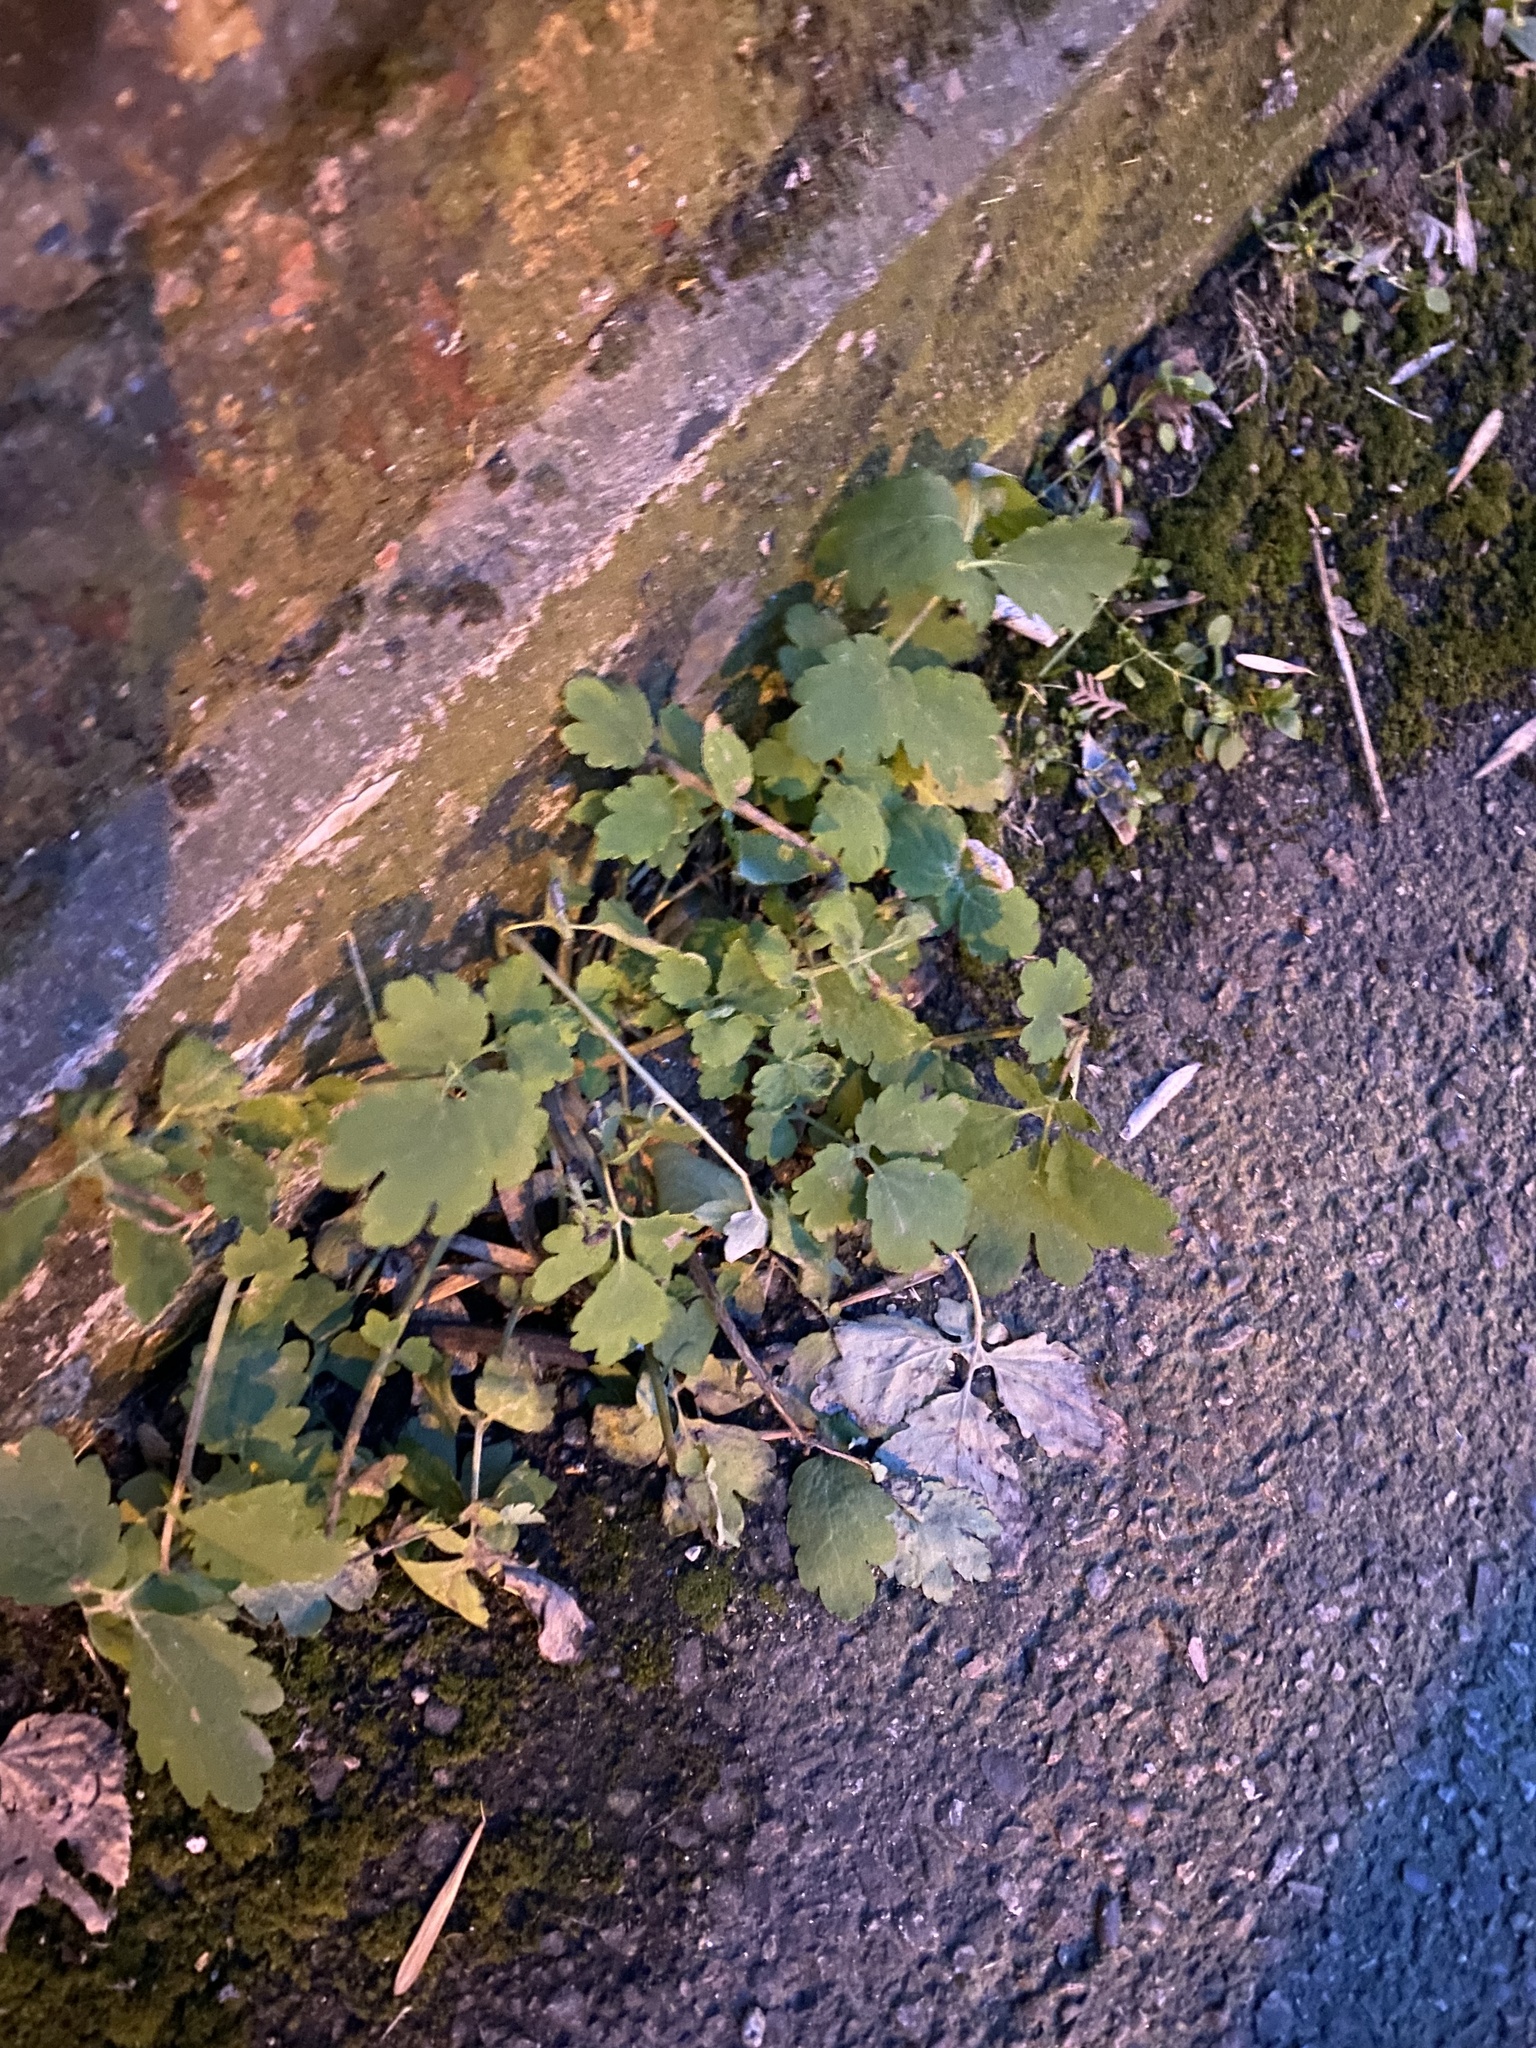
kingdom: Plantae
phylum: Tracheophyta
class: Magnoliopsida
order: Ranunculales
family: Papaveraceae
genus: Chelidonium
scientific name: Chelidonium majus
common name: Greater celandine
